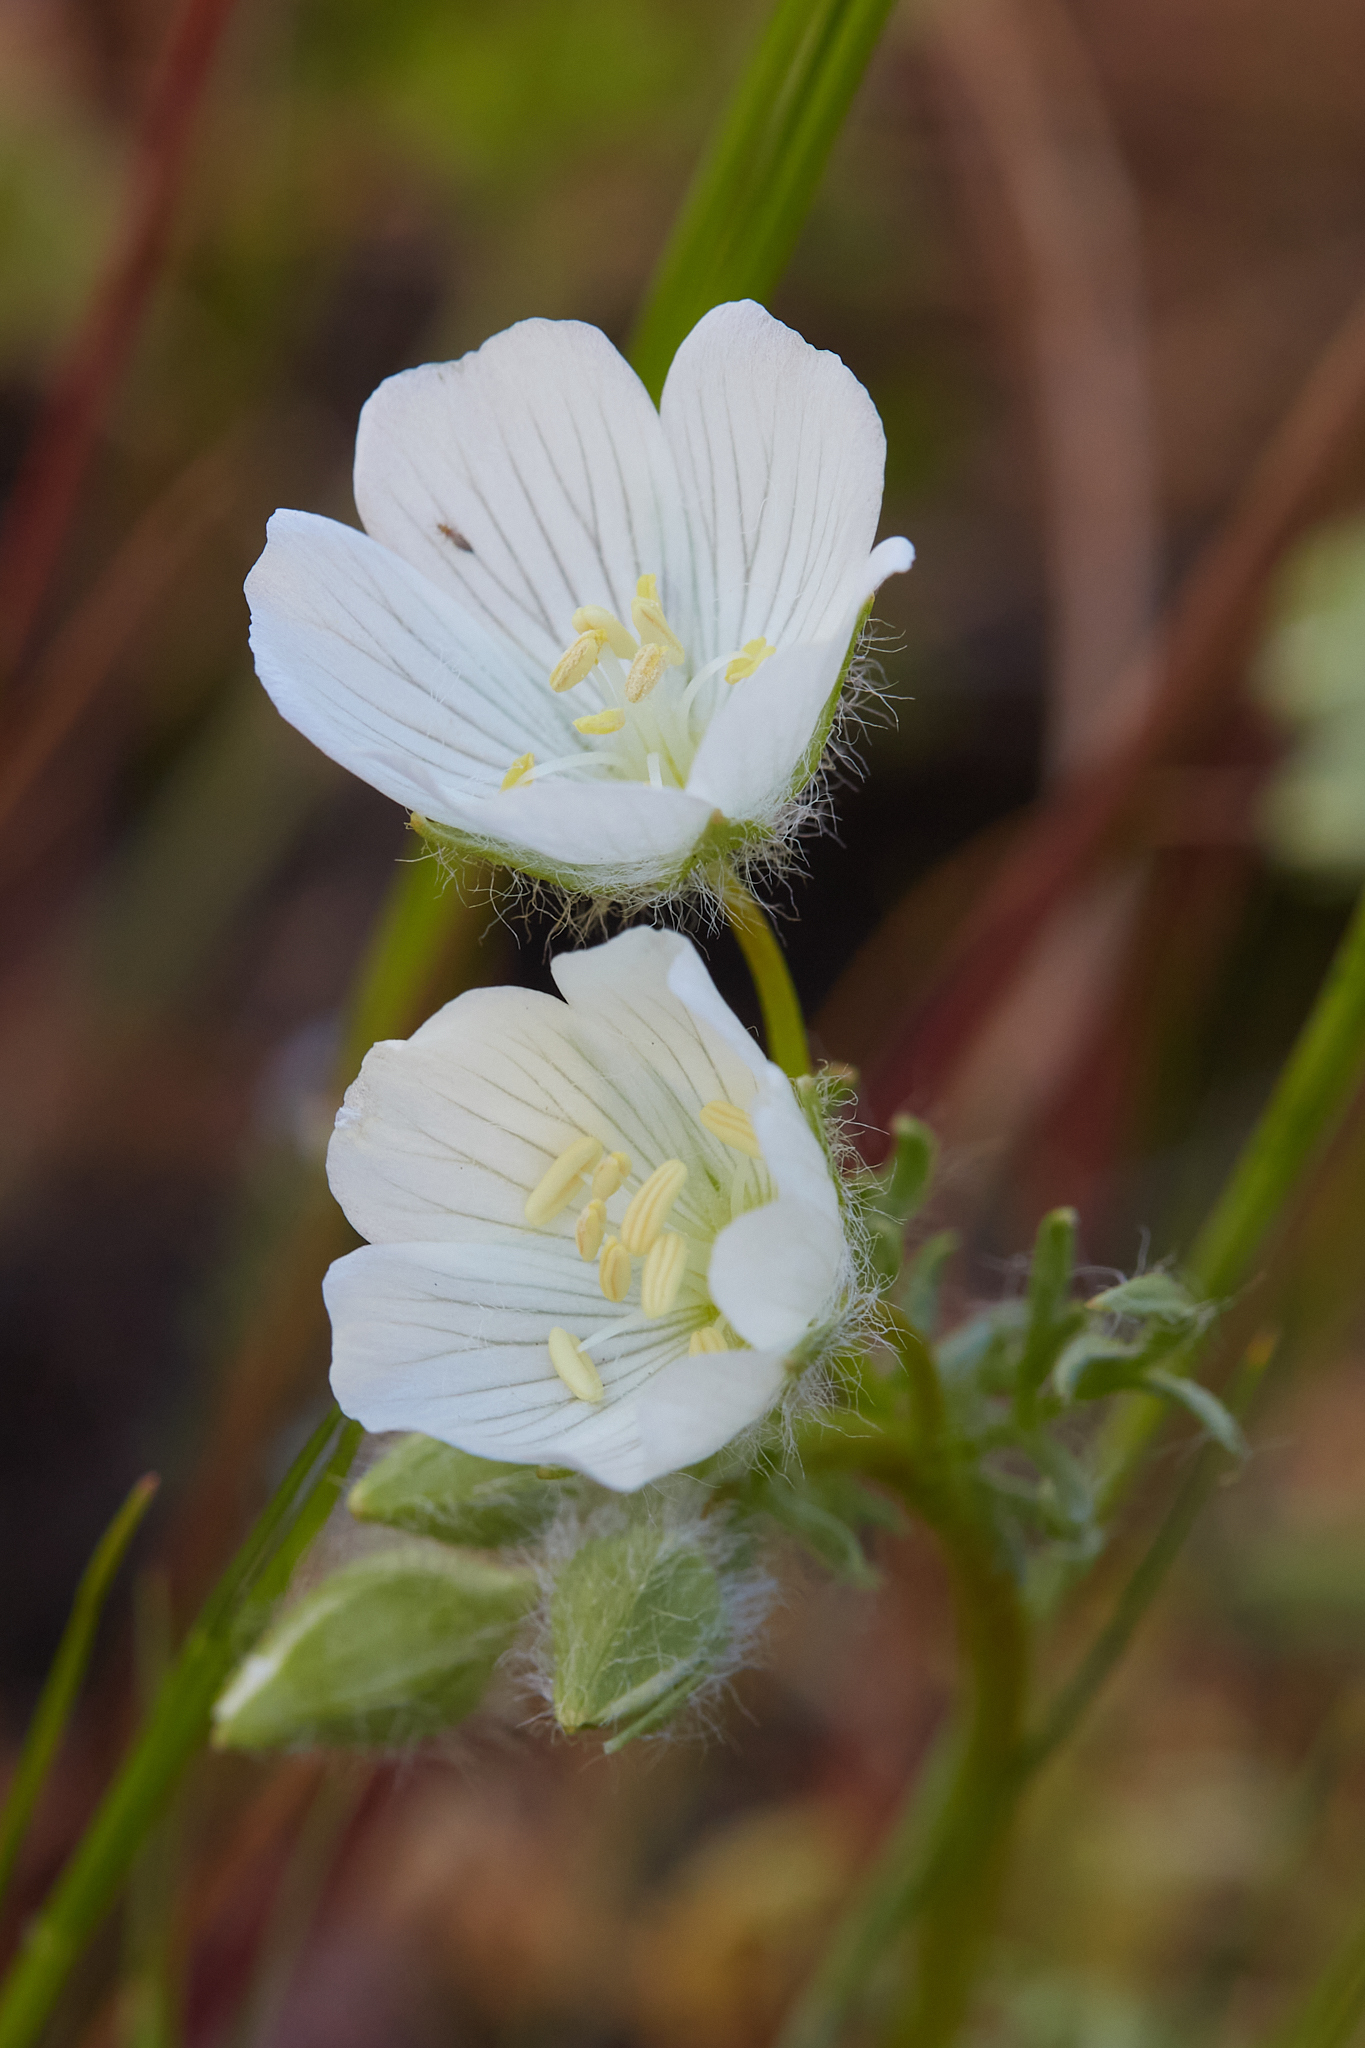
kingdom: Plantae
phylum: Tracheophyta
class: Magnoliopsida
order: Brassicales
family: Limnanthaceae
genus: Limnanthes
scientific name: Limnanthes alba
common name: Meadowfoam
